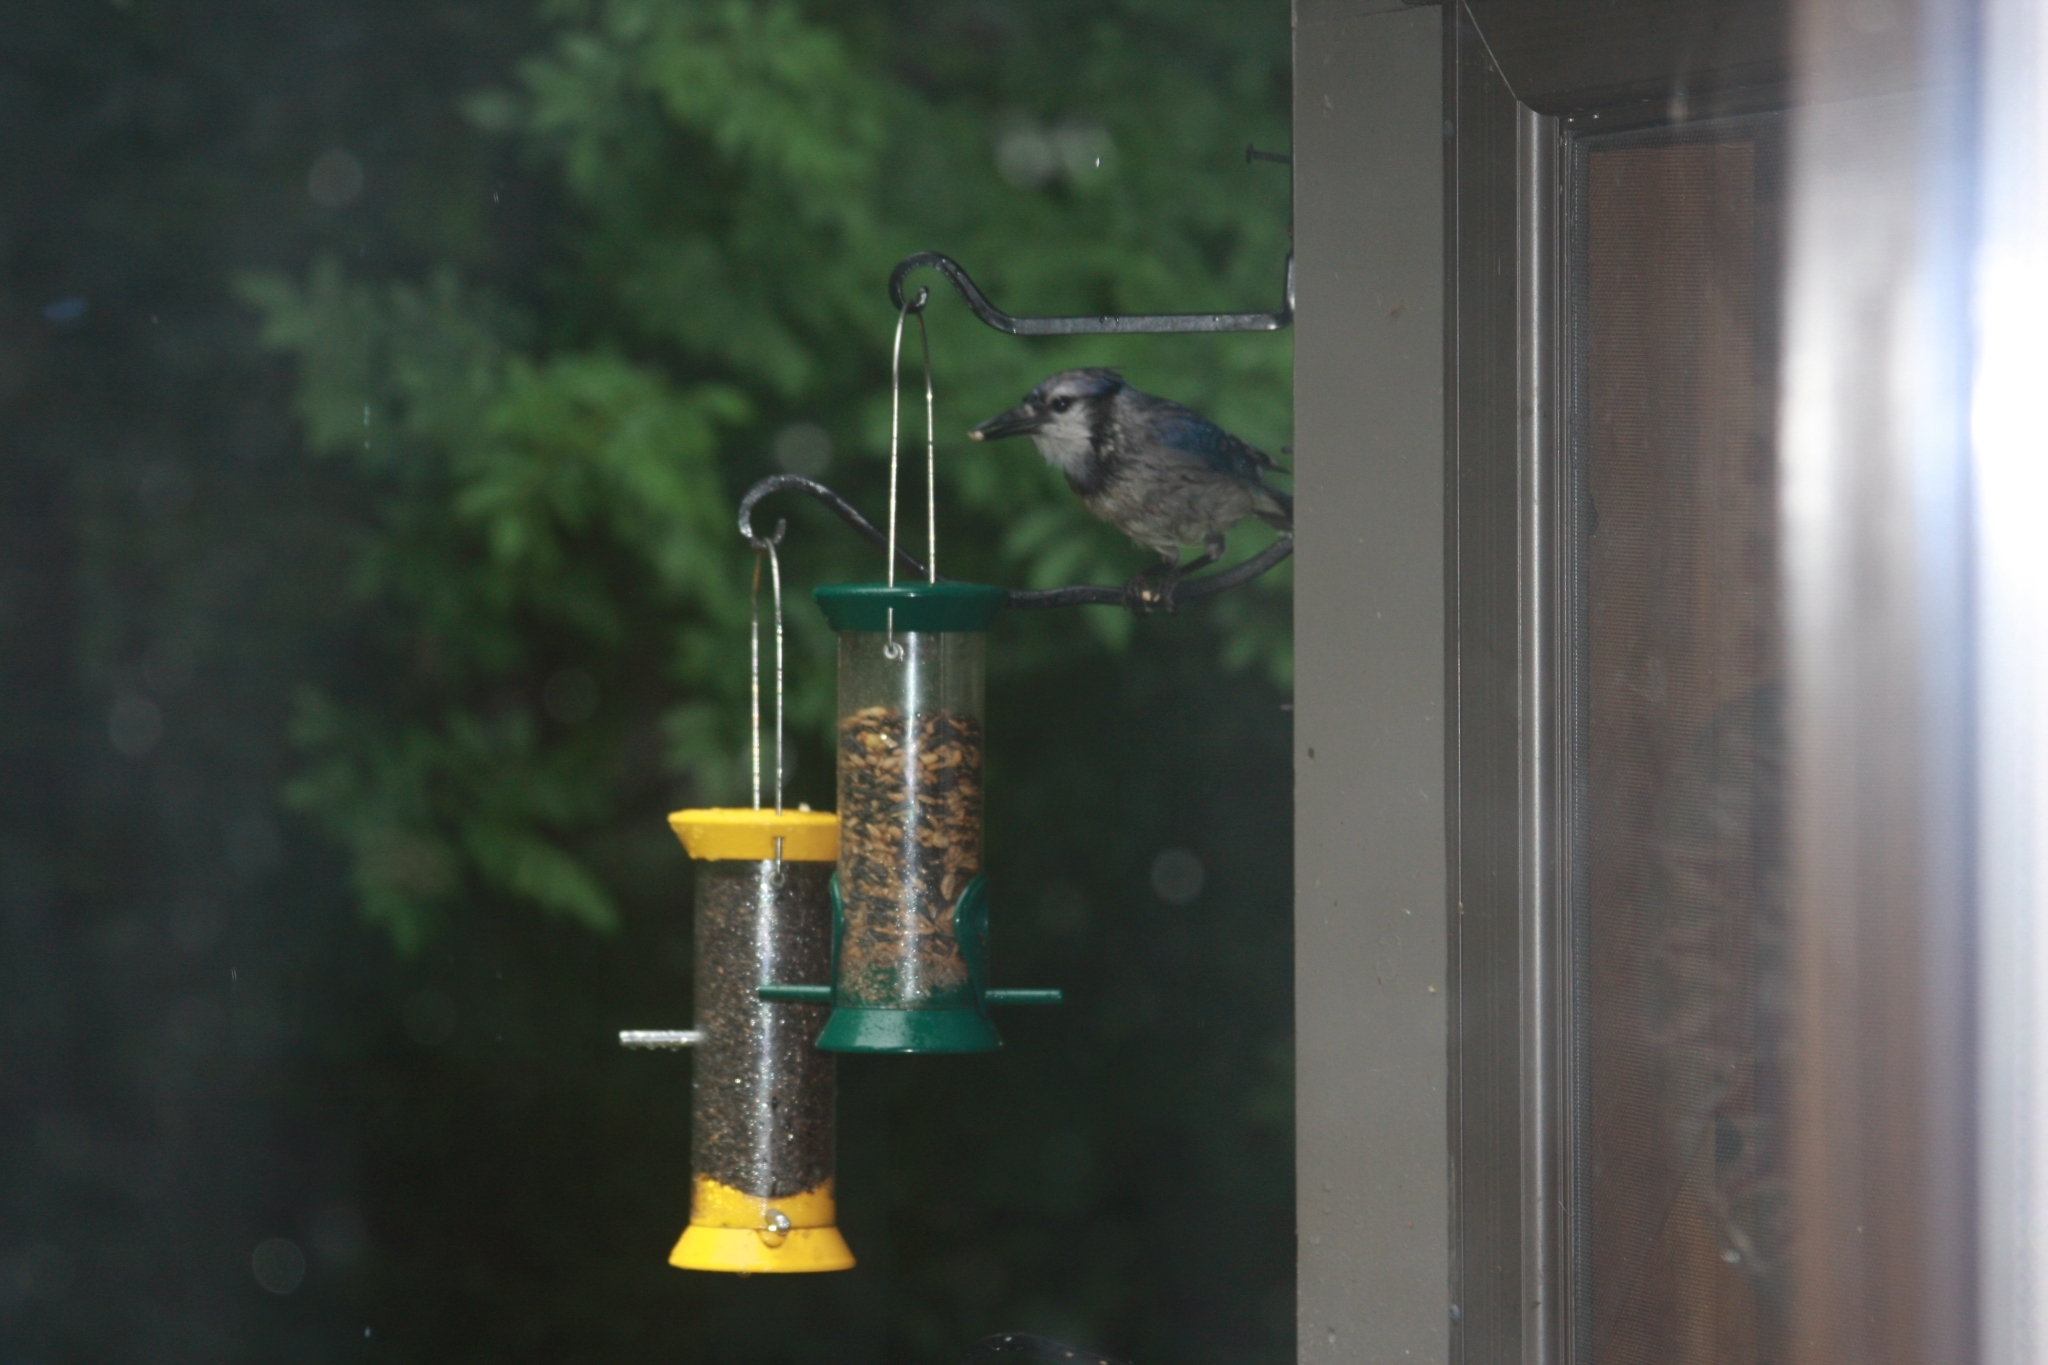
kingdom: Animalia
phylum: Chordata
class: Aves
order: Passeriformes
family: Corvidae
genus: Cyanocitta
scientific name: Cyanocitta cristata
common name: Blue jay
